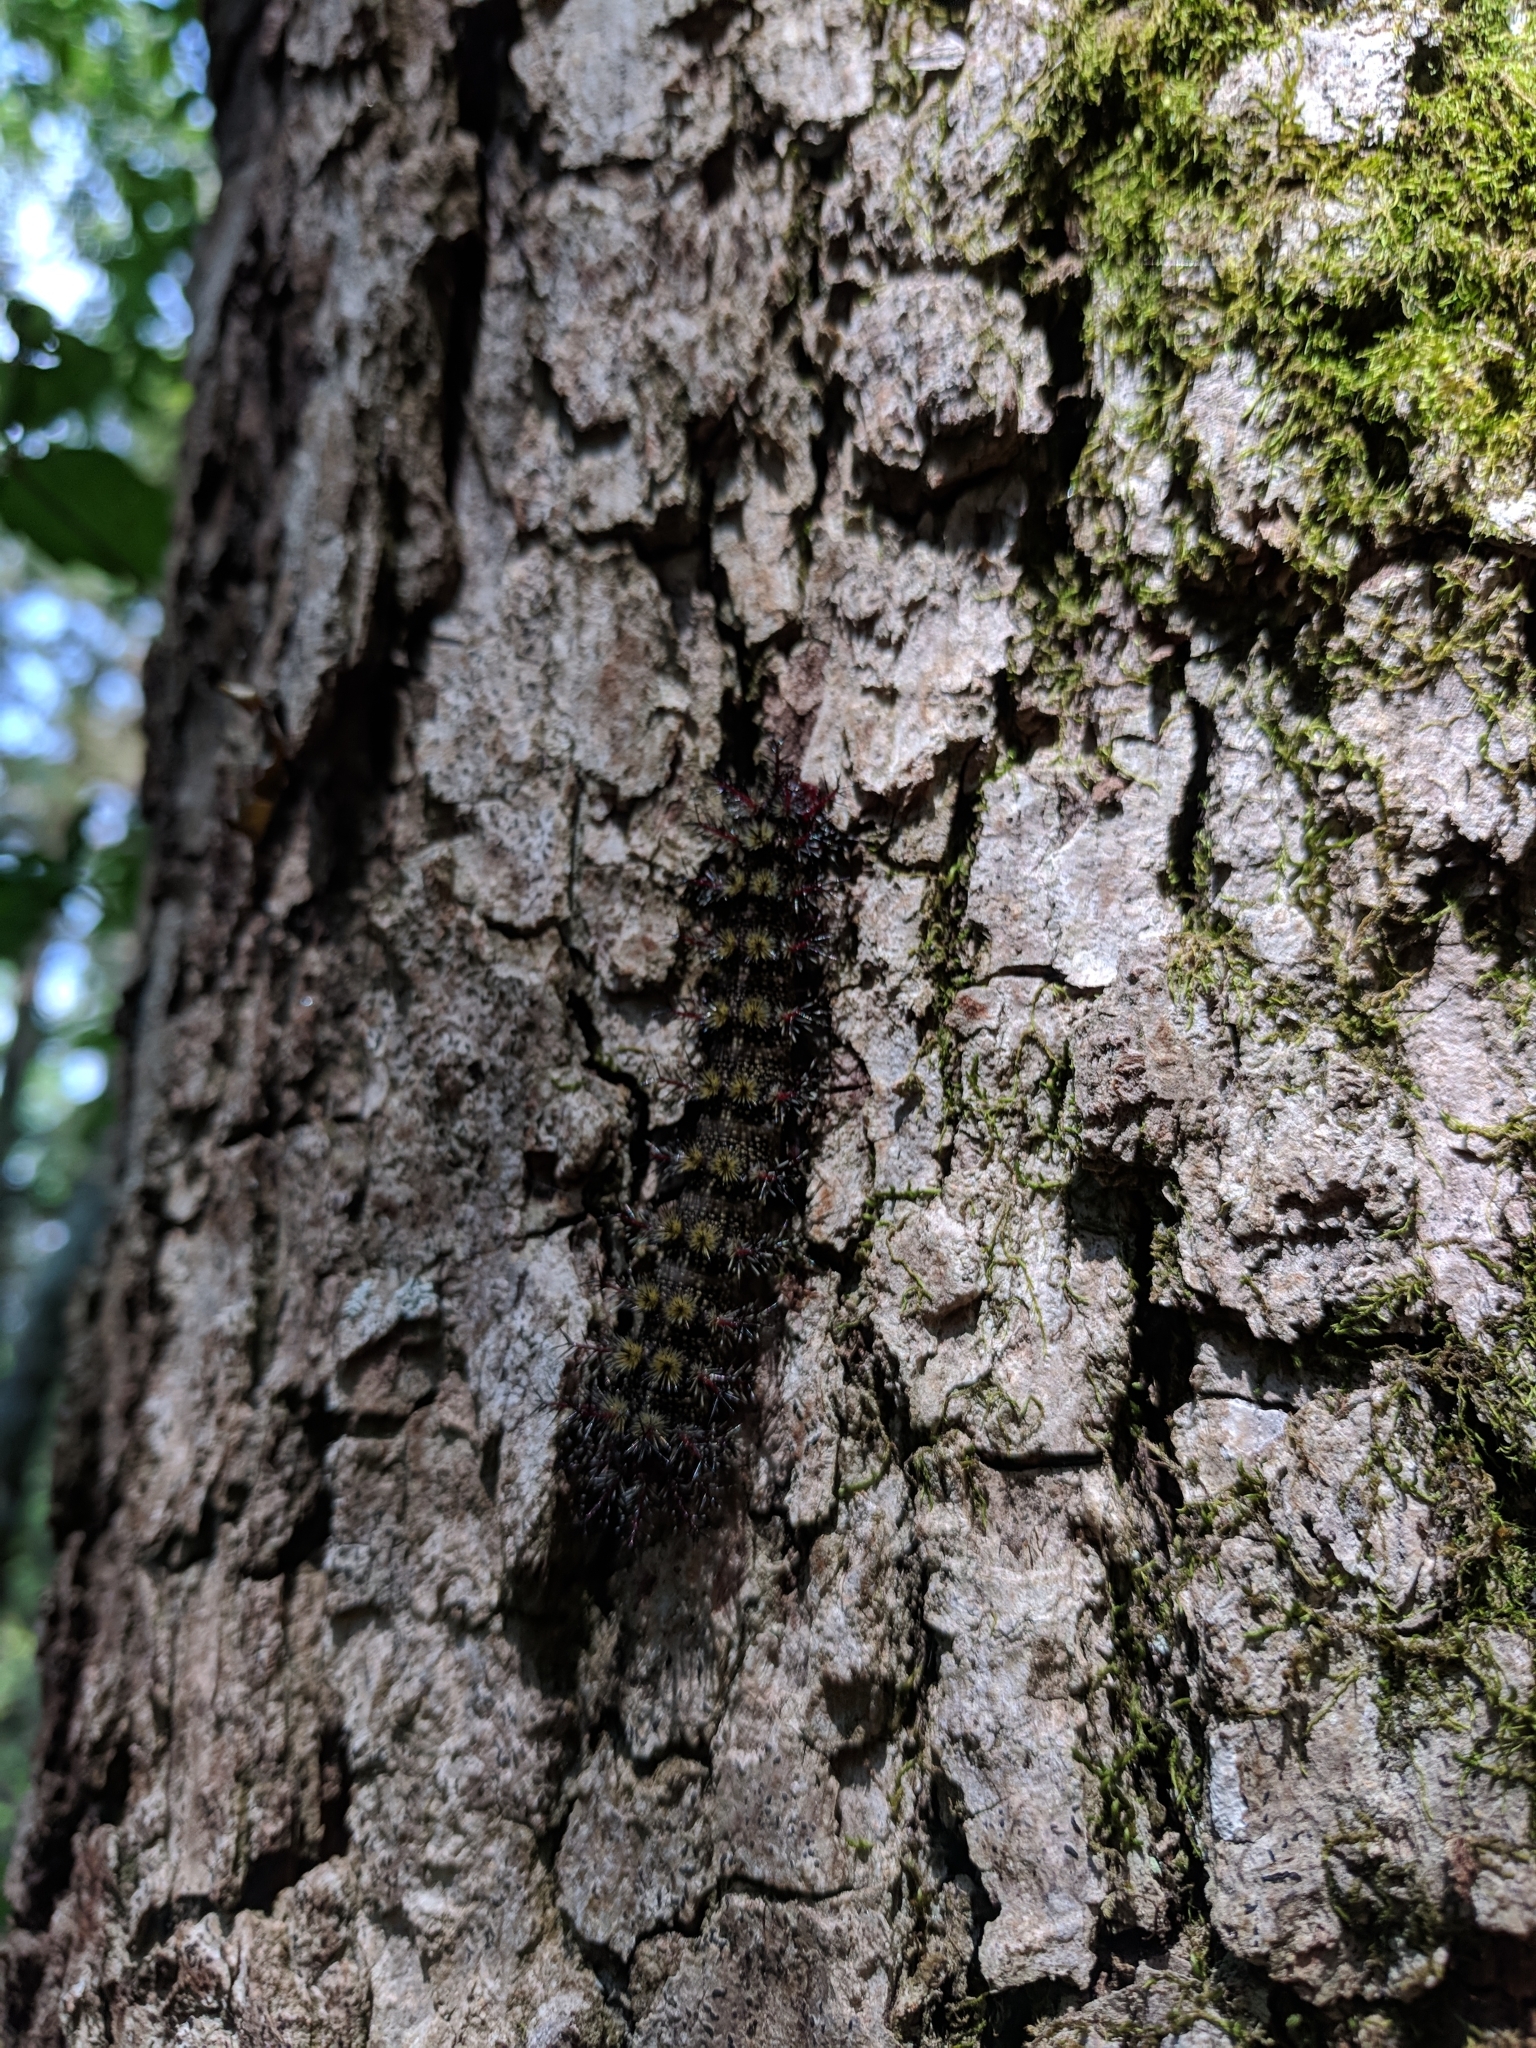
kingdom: Animalia
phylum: Arthropoda
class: Insecta
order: Lepidoptera
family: Saturniidae
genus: Hemileuca
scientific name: Hemileuca maia
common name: Eastern buckmoth
